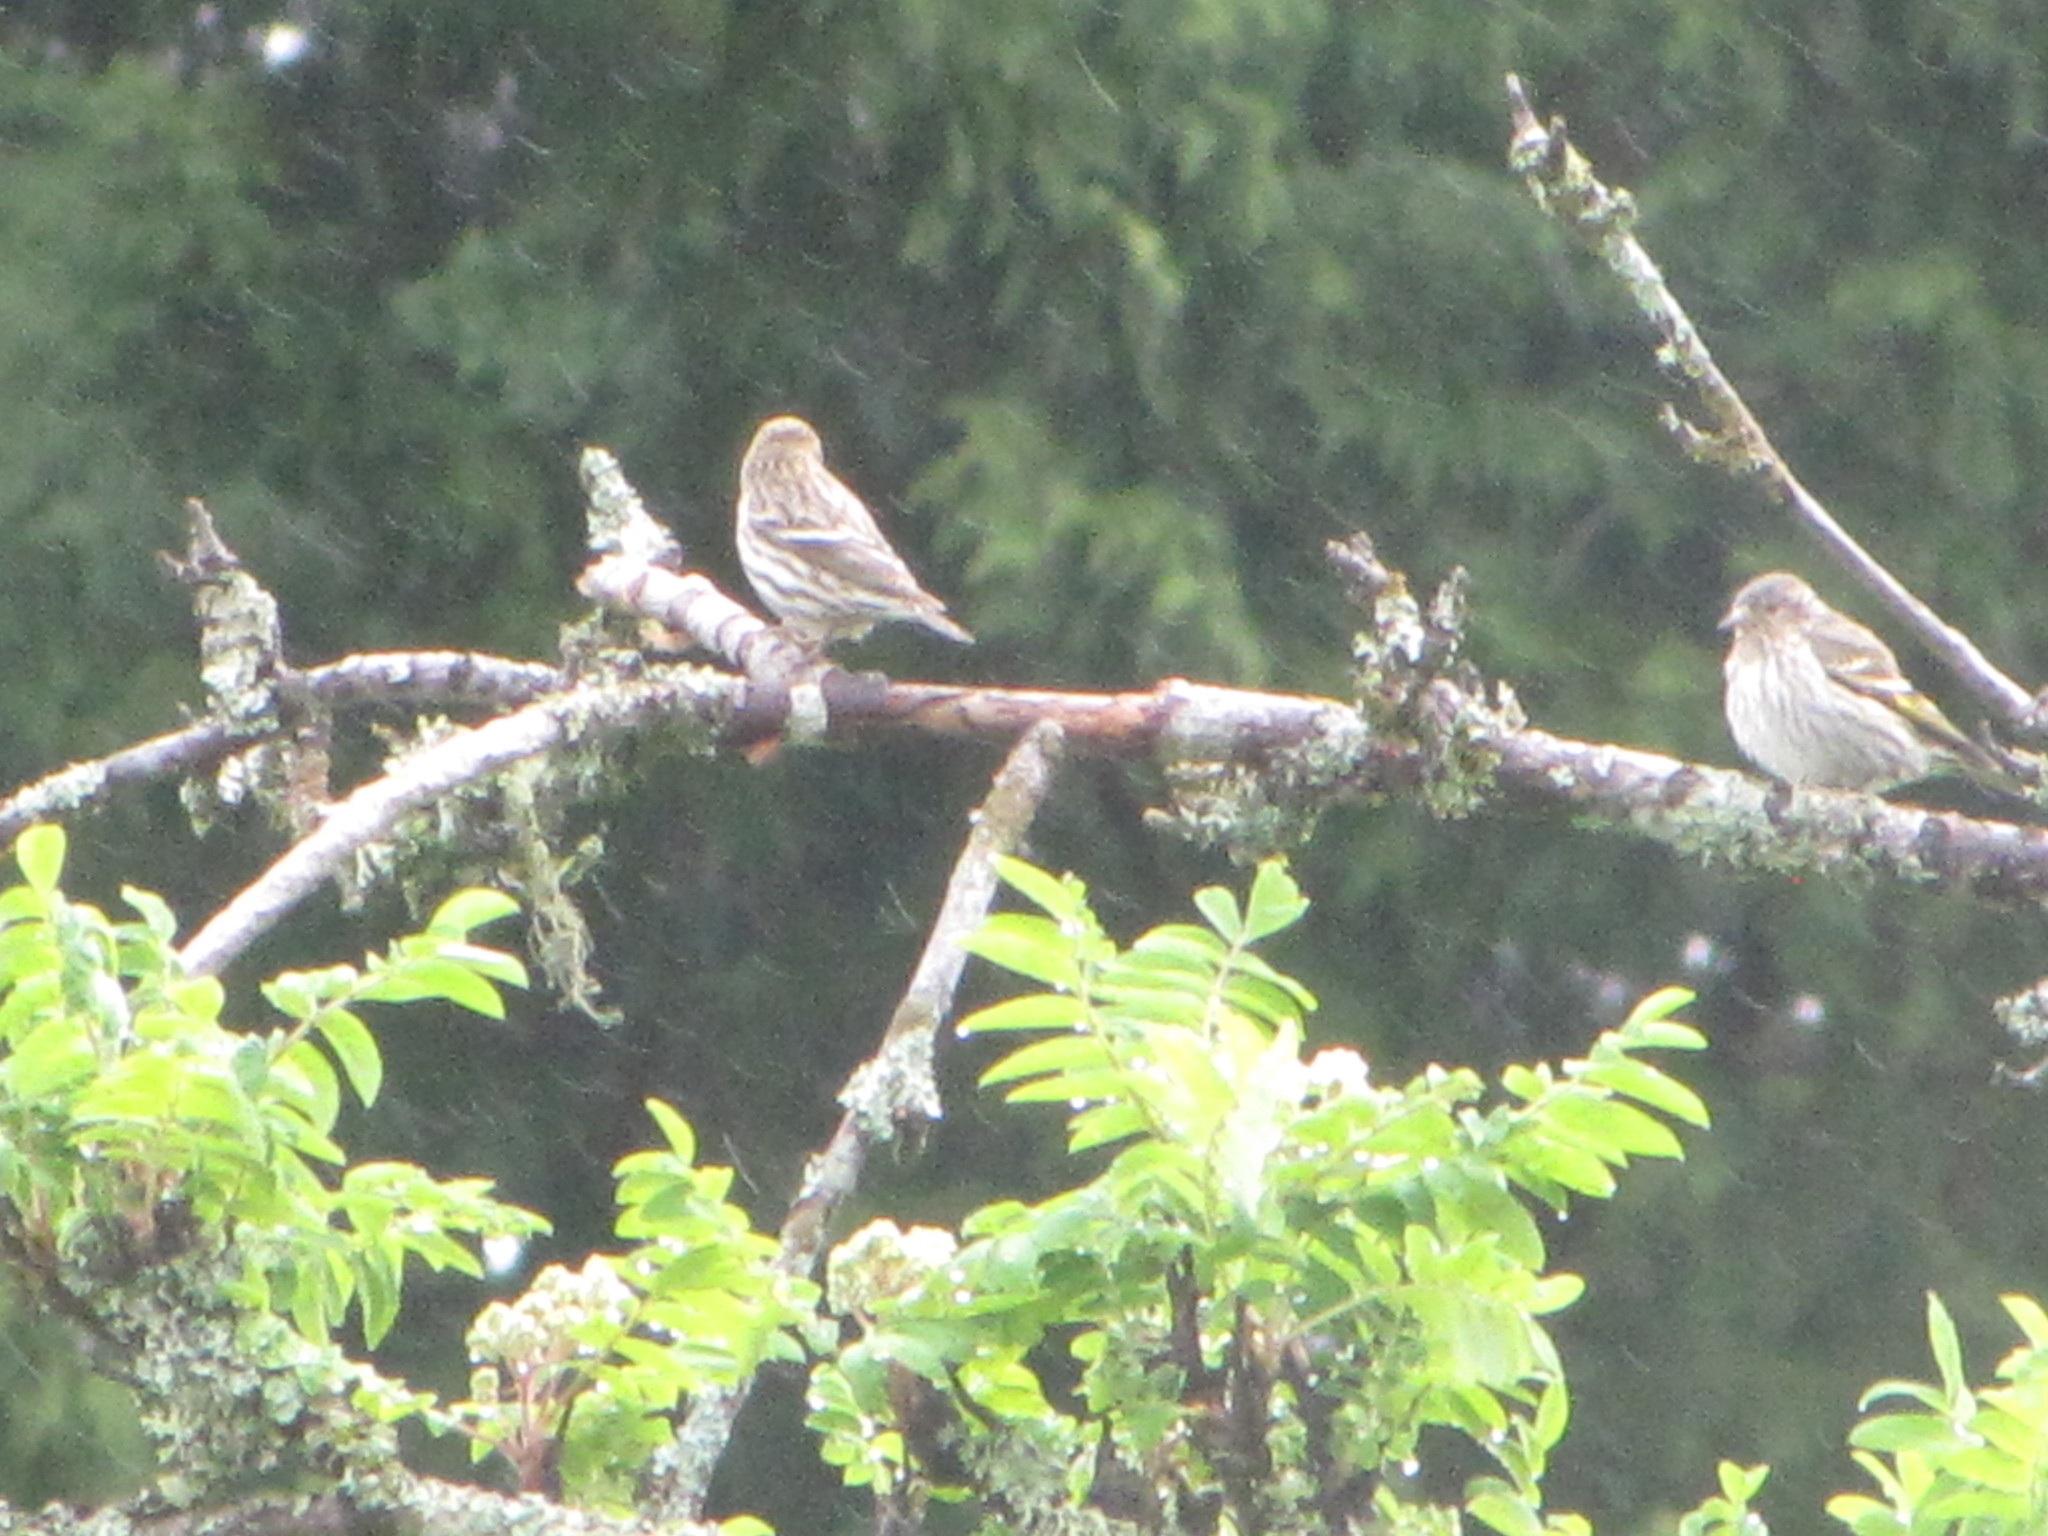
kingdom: Animalia
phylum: Chordata
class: Aves
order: Passeriformes
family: Fringillidae
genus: Spinus
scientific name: Spinus pinus
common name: Pine siskin
